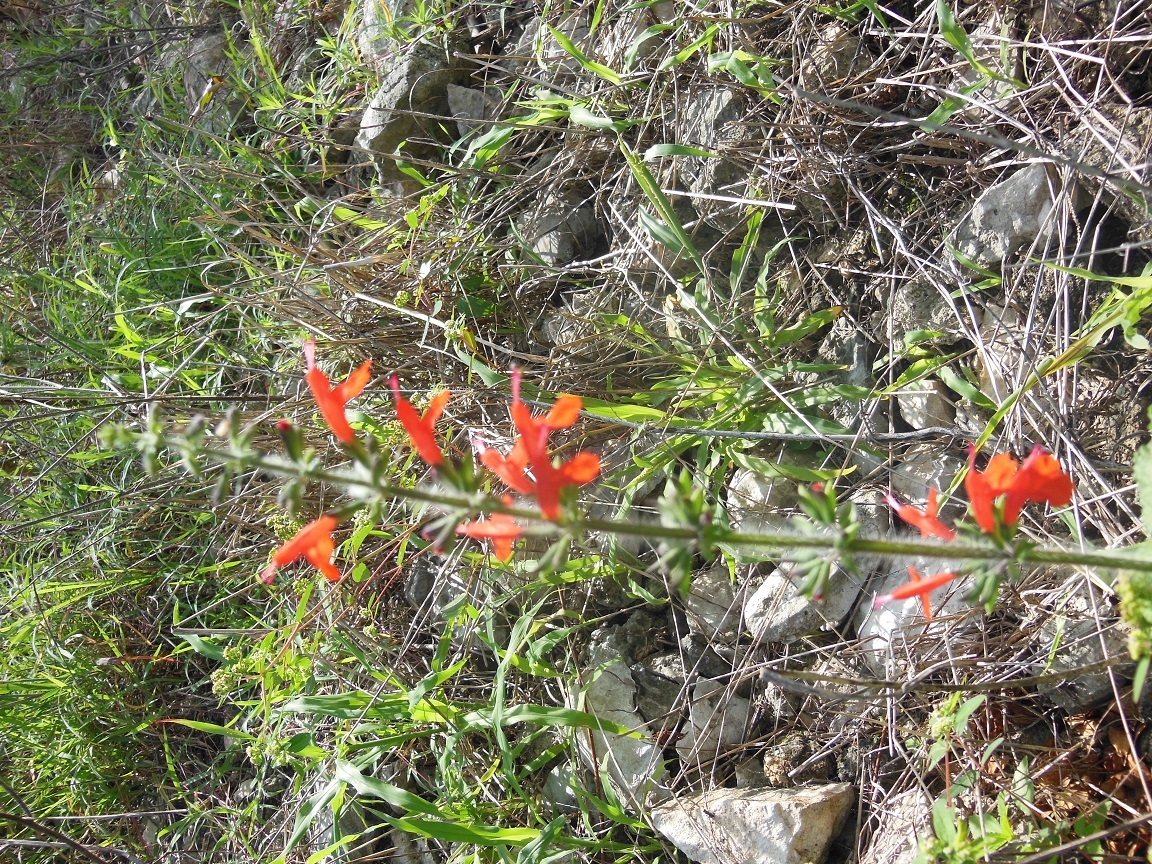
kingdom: Plantae
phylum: Tracheophyta
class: Magnoliopsida
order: Lamiales
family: Lamiaceae
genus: Salvia
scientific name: Salvia coccinea
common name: Blood sage
